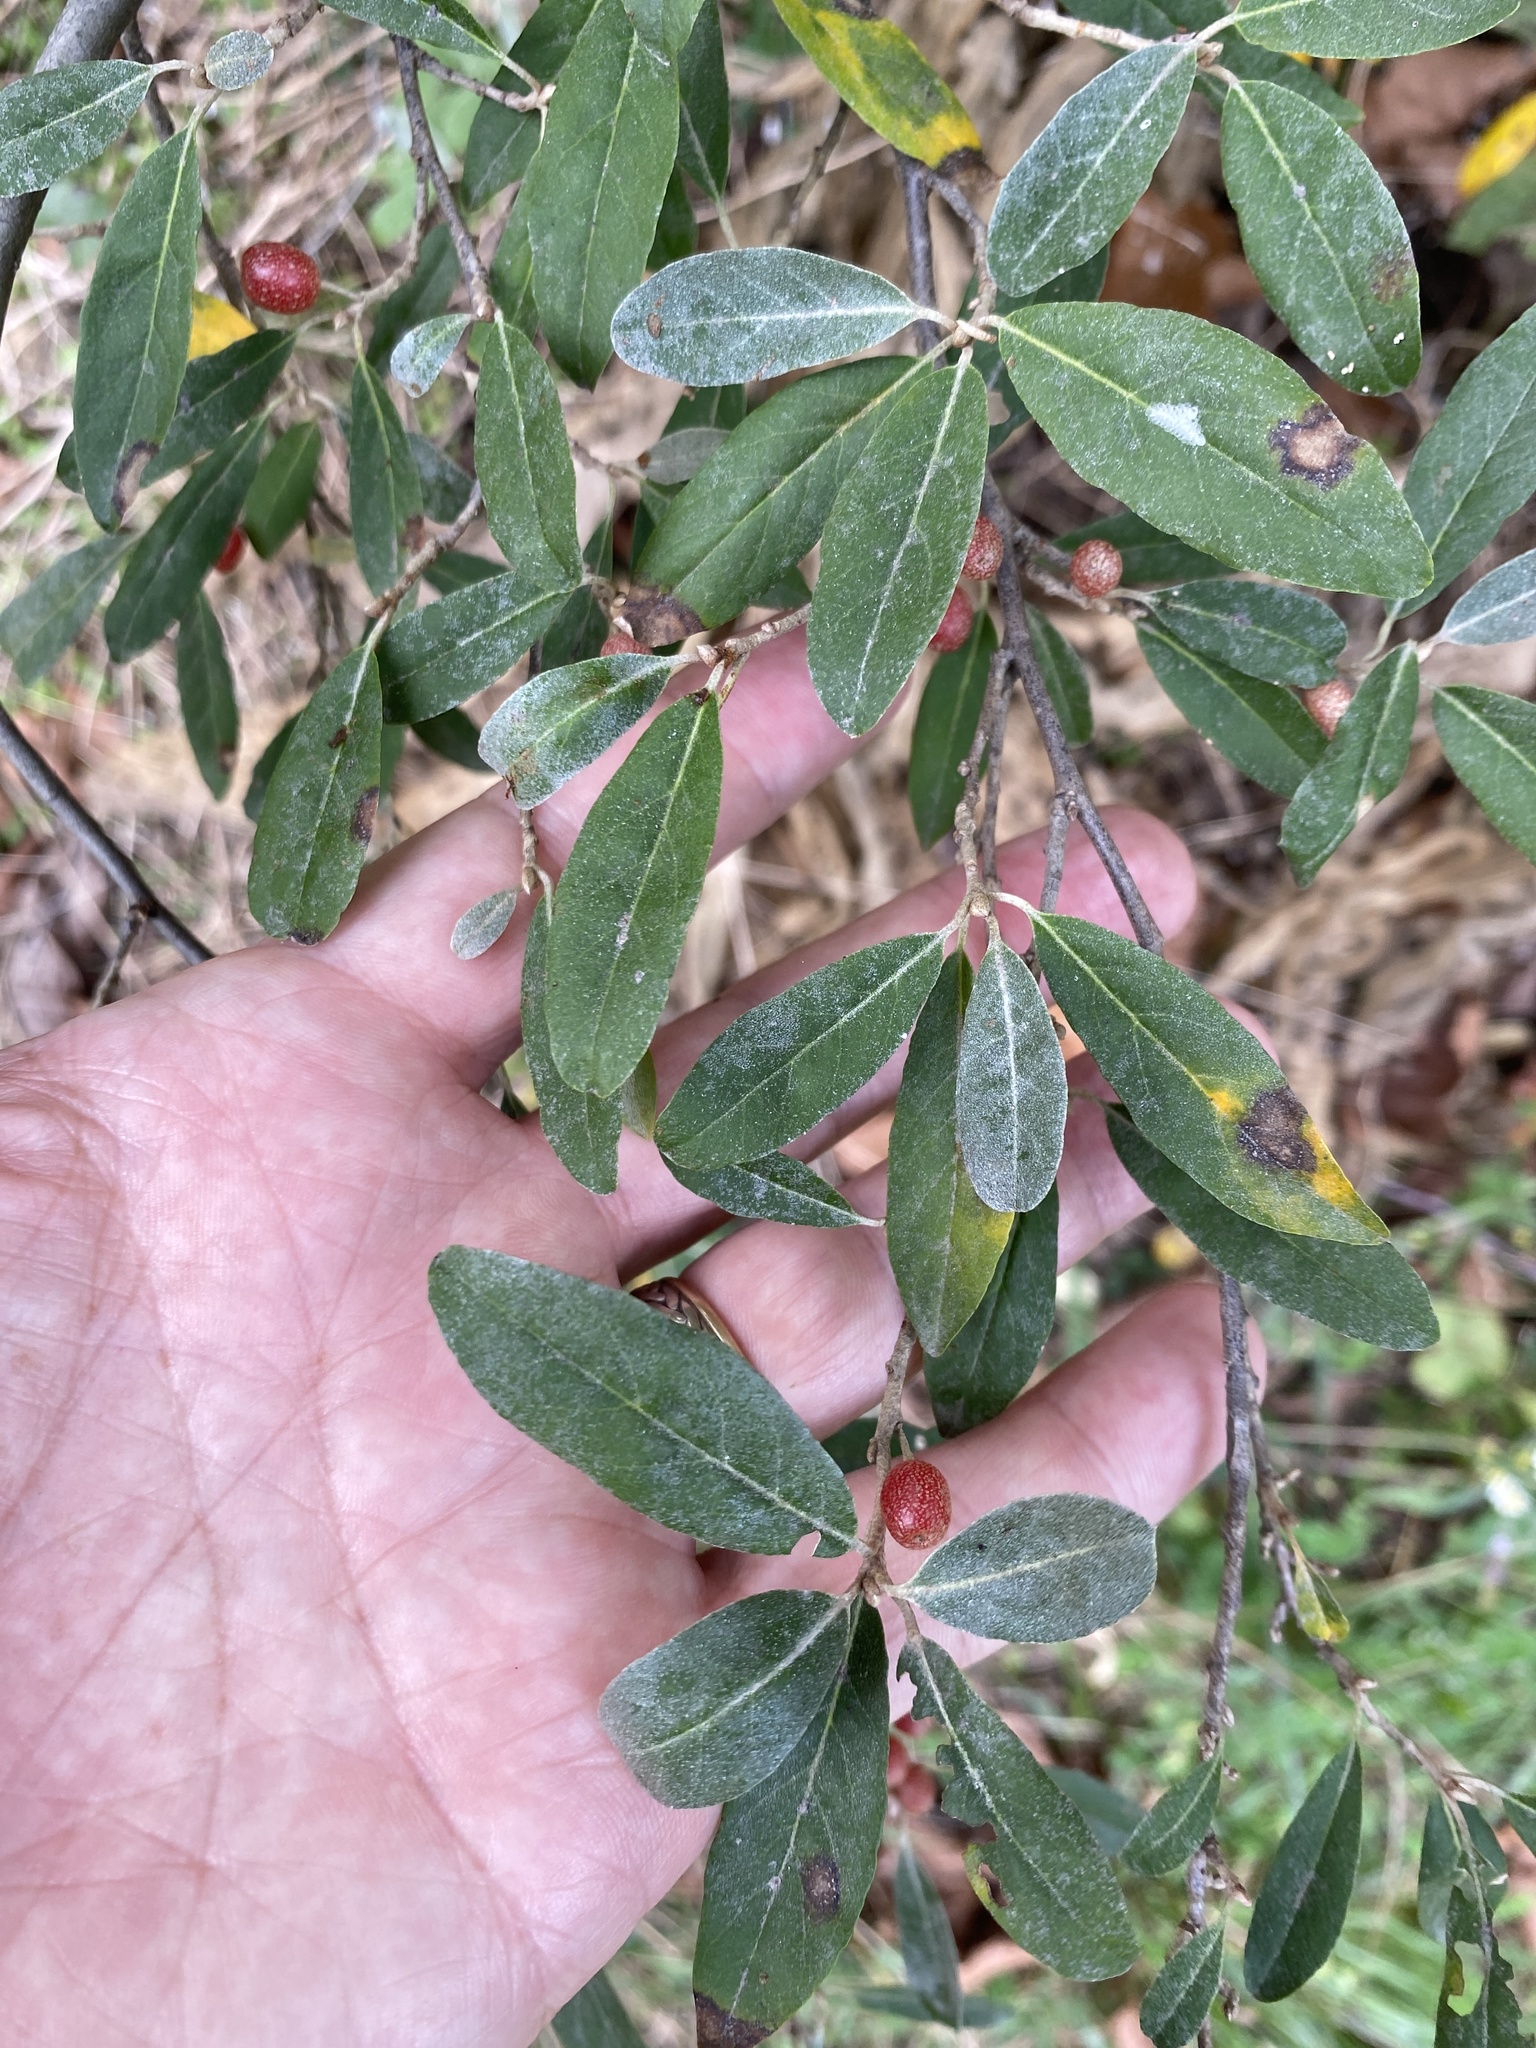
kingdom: Plantae
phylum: Tracheophyta
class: Magnoliopsida
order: Rosales
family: Elaeagnaceae
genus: Elaeagnus
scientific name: Elaeagnus umbellata
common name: Autumn olive
